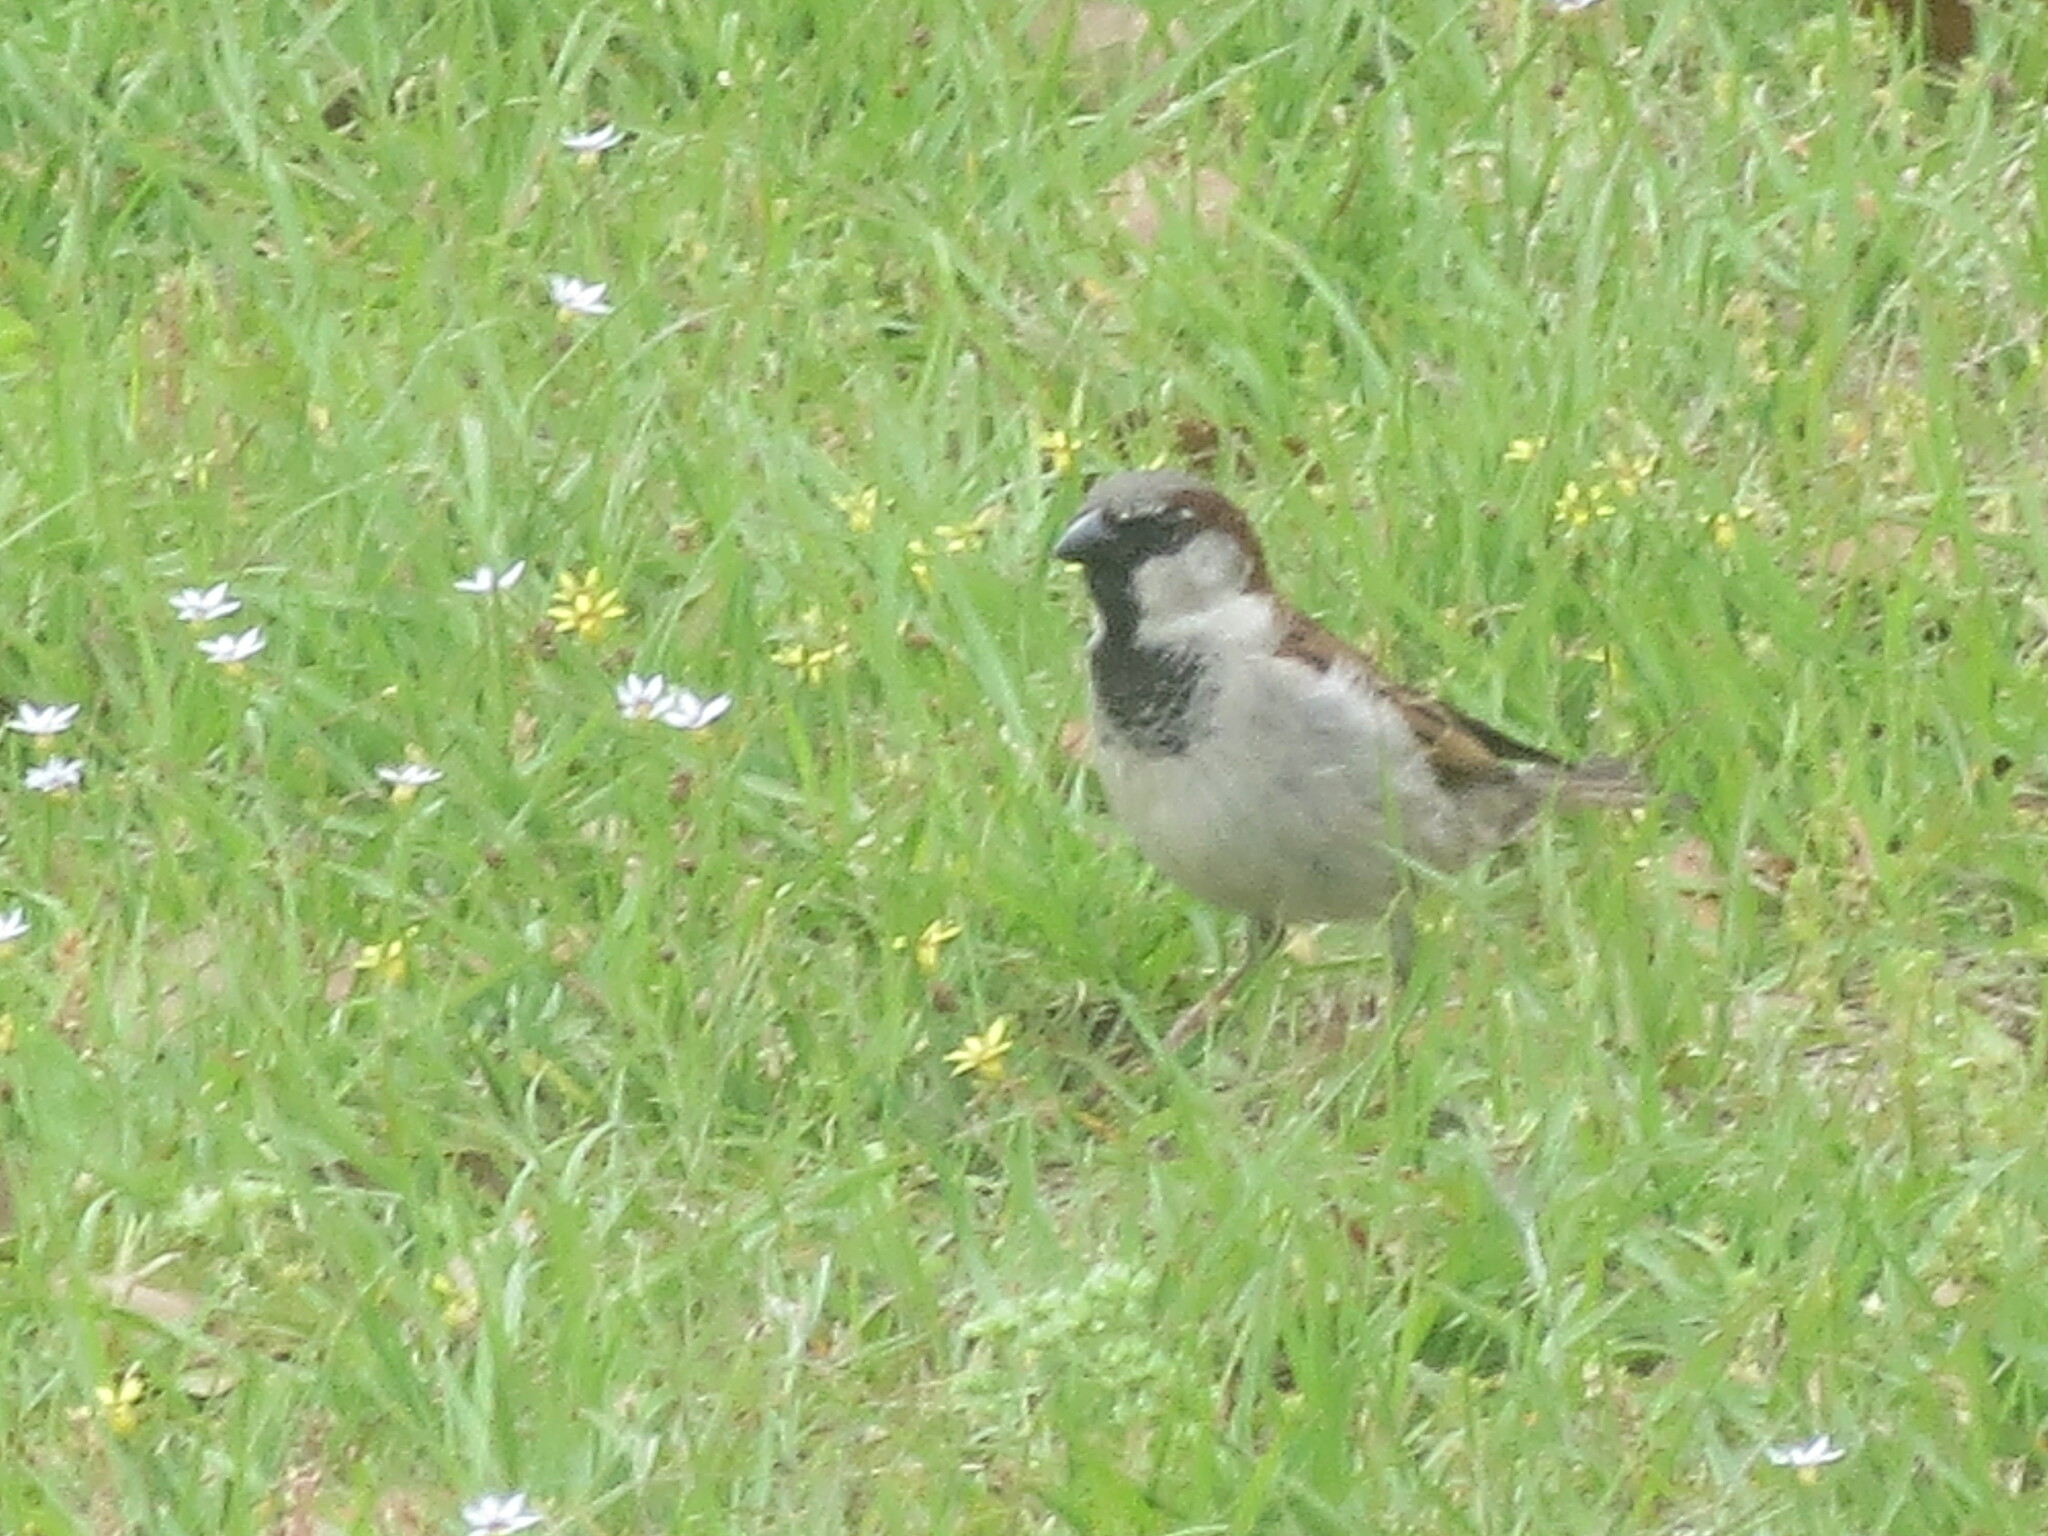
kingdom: Animalia
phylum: Chordata
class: Aves
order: Passeriformes
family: Passeridae
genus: Passer
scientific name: Passer domesticus
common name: House sparrow
